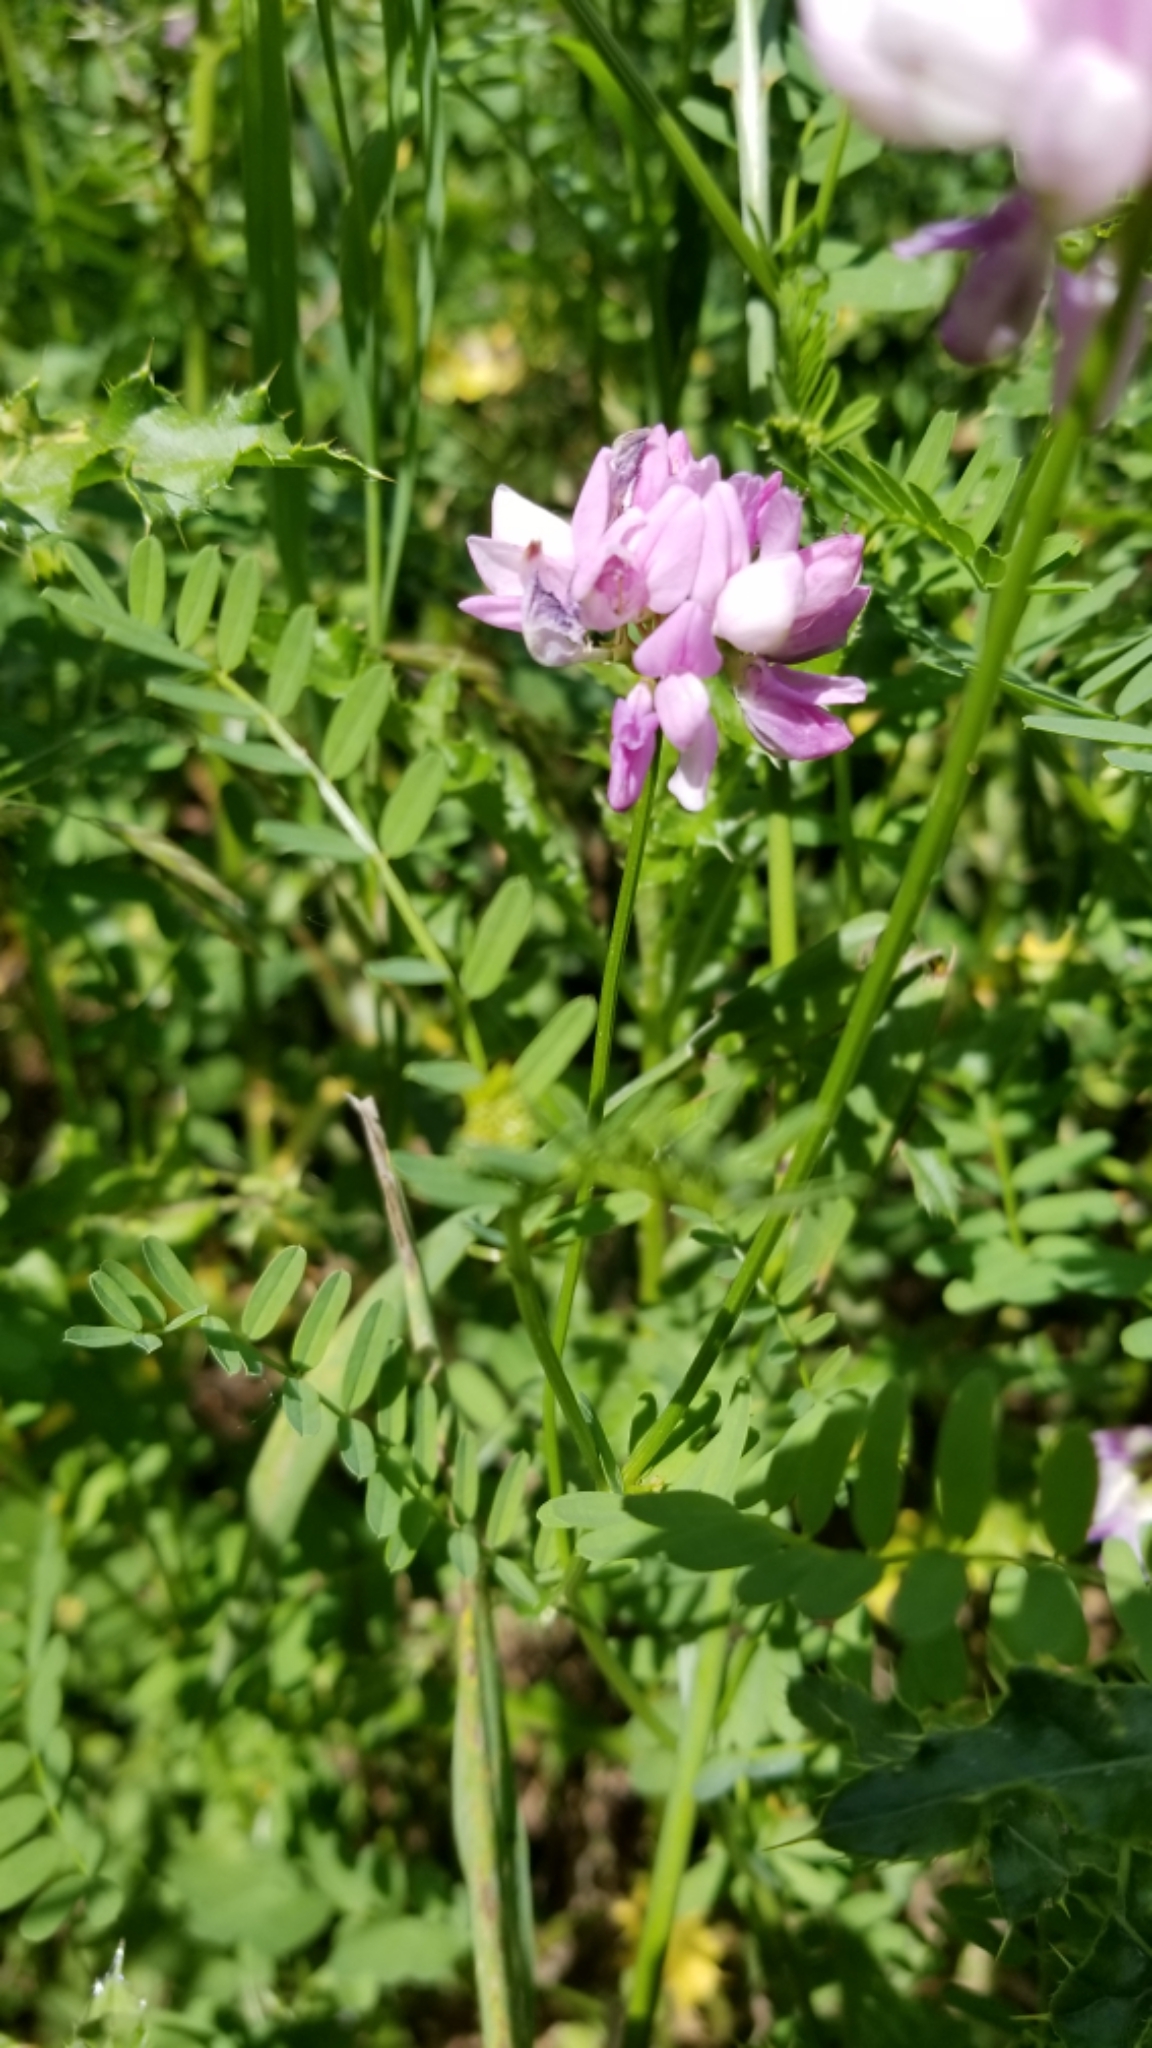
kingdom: Plantae
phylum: Tracheophyta
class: Magnoliopsida
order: Fabales
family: Fabaceae
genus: Coronilla
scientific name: Coronilla varia
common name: Crownvetch
